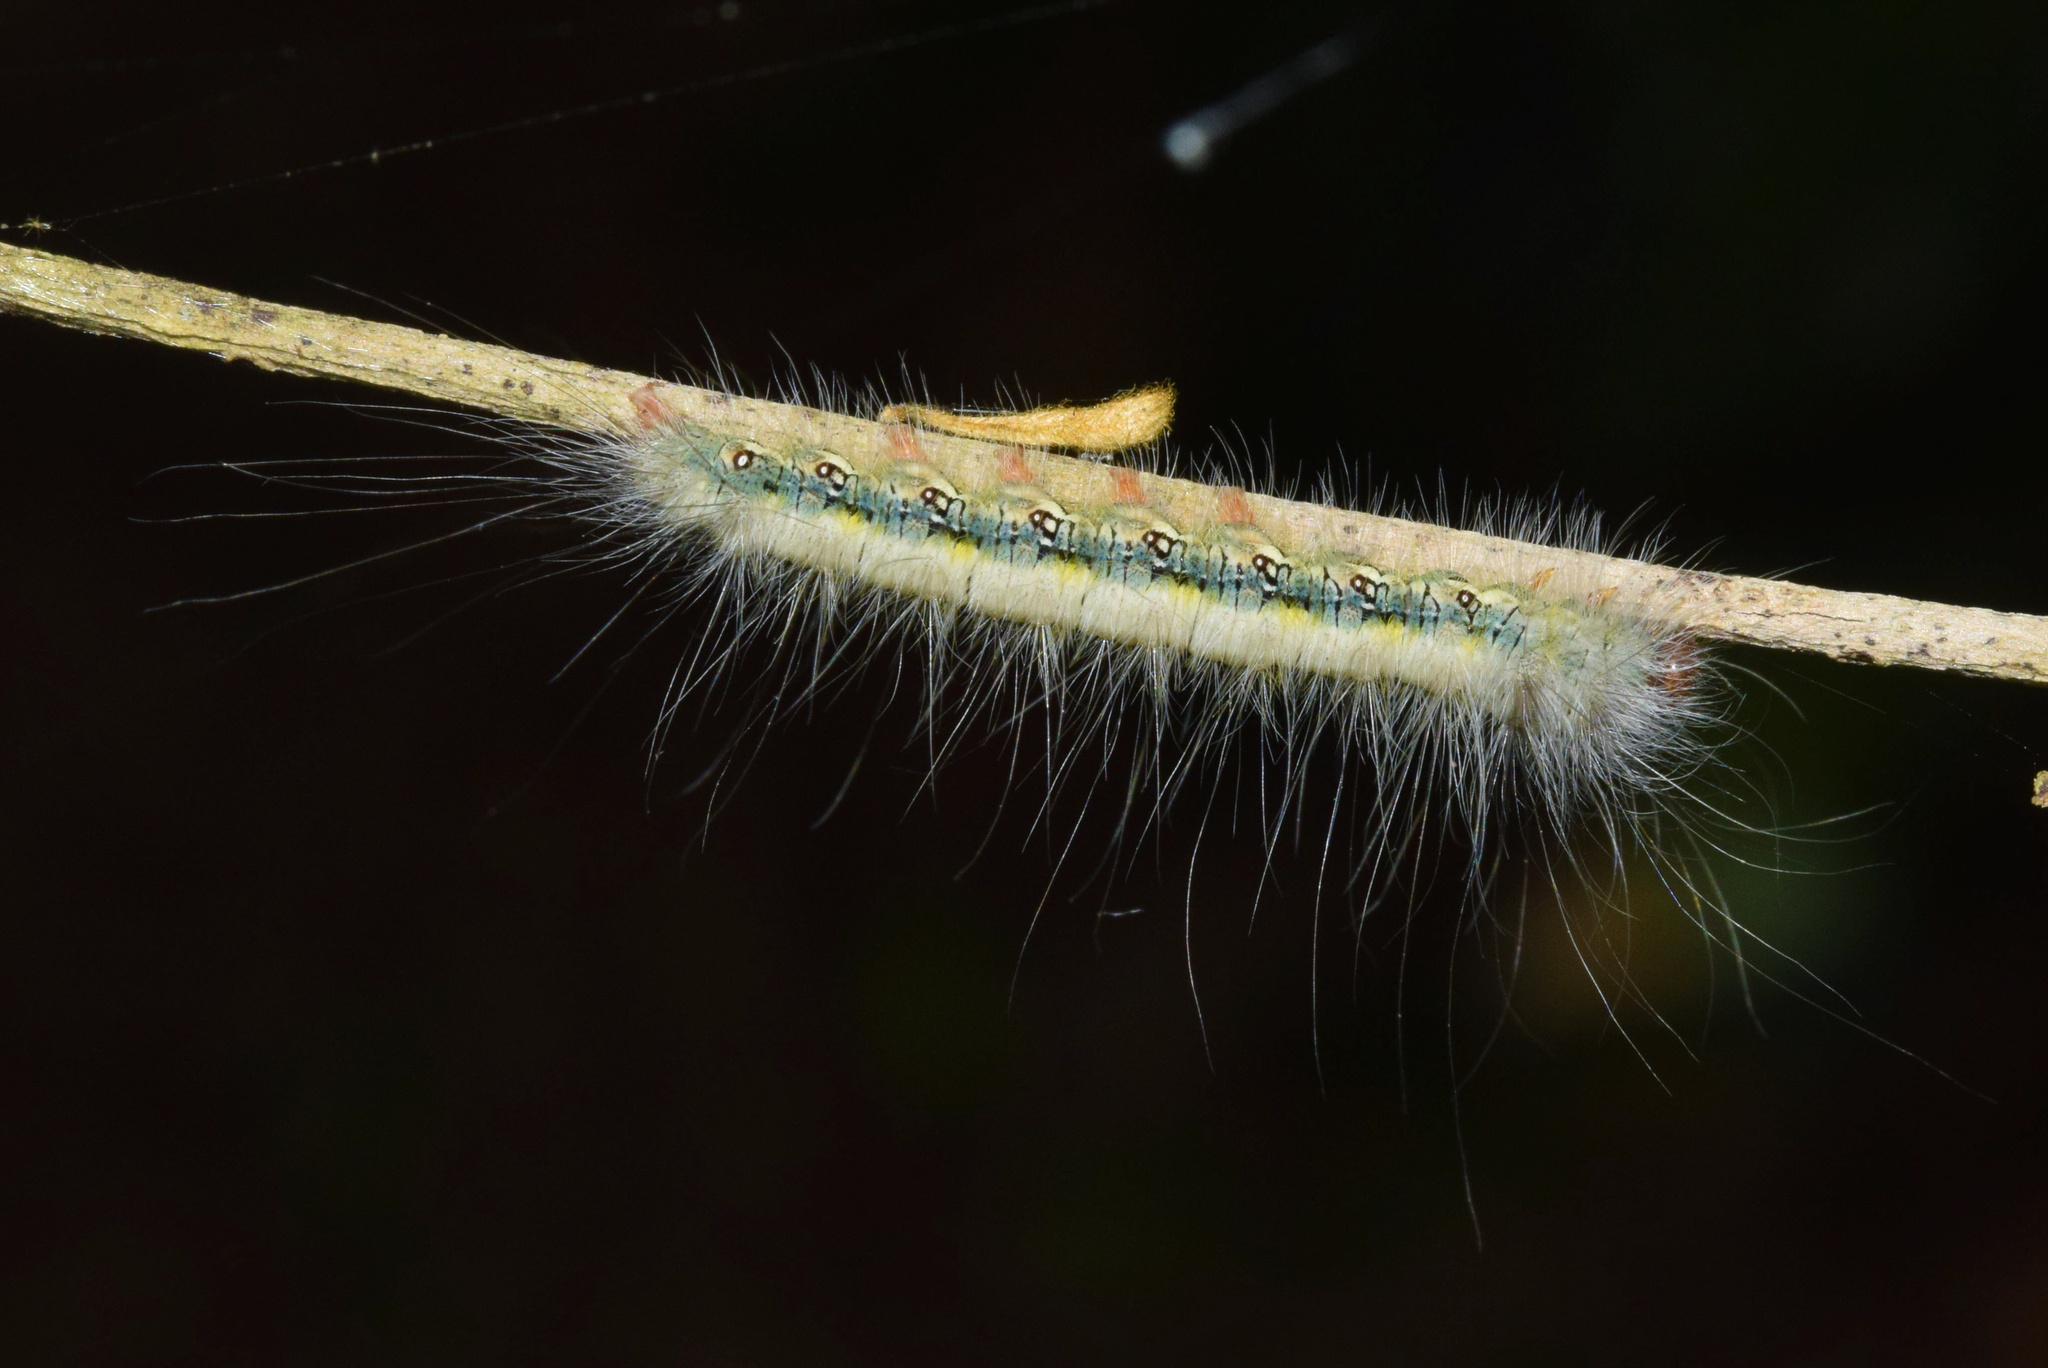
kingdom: Animalia
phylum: Arthropoda
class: Insecta
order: Lepidoptera
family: Eupterotidae
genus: Poloma
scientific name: Poloma angulata
